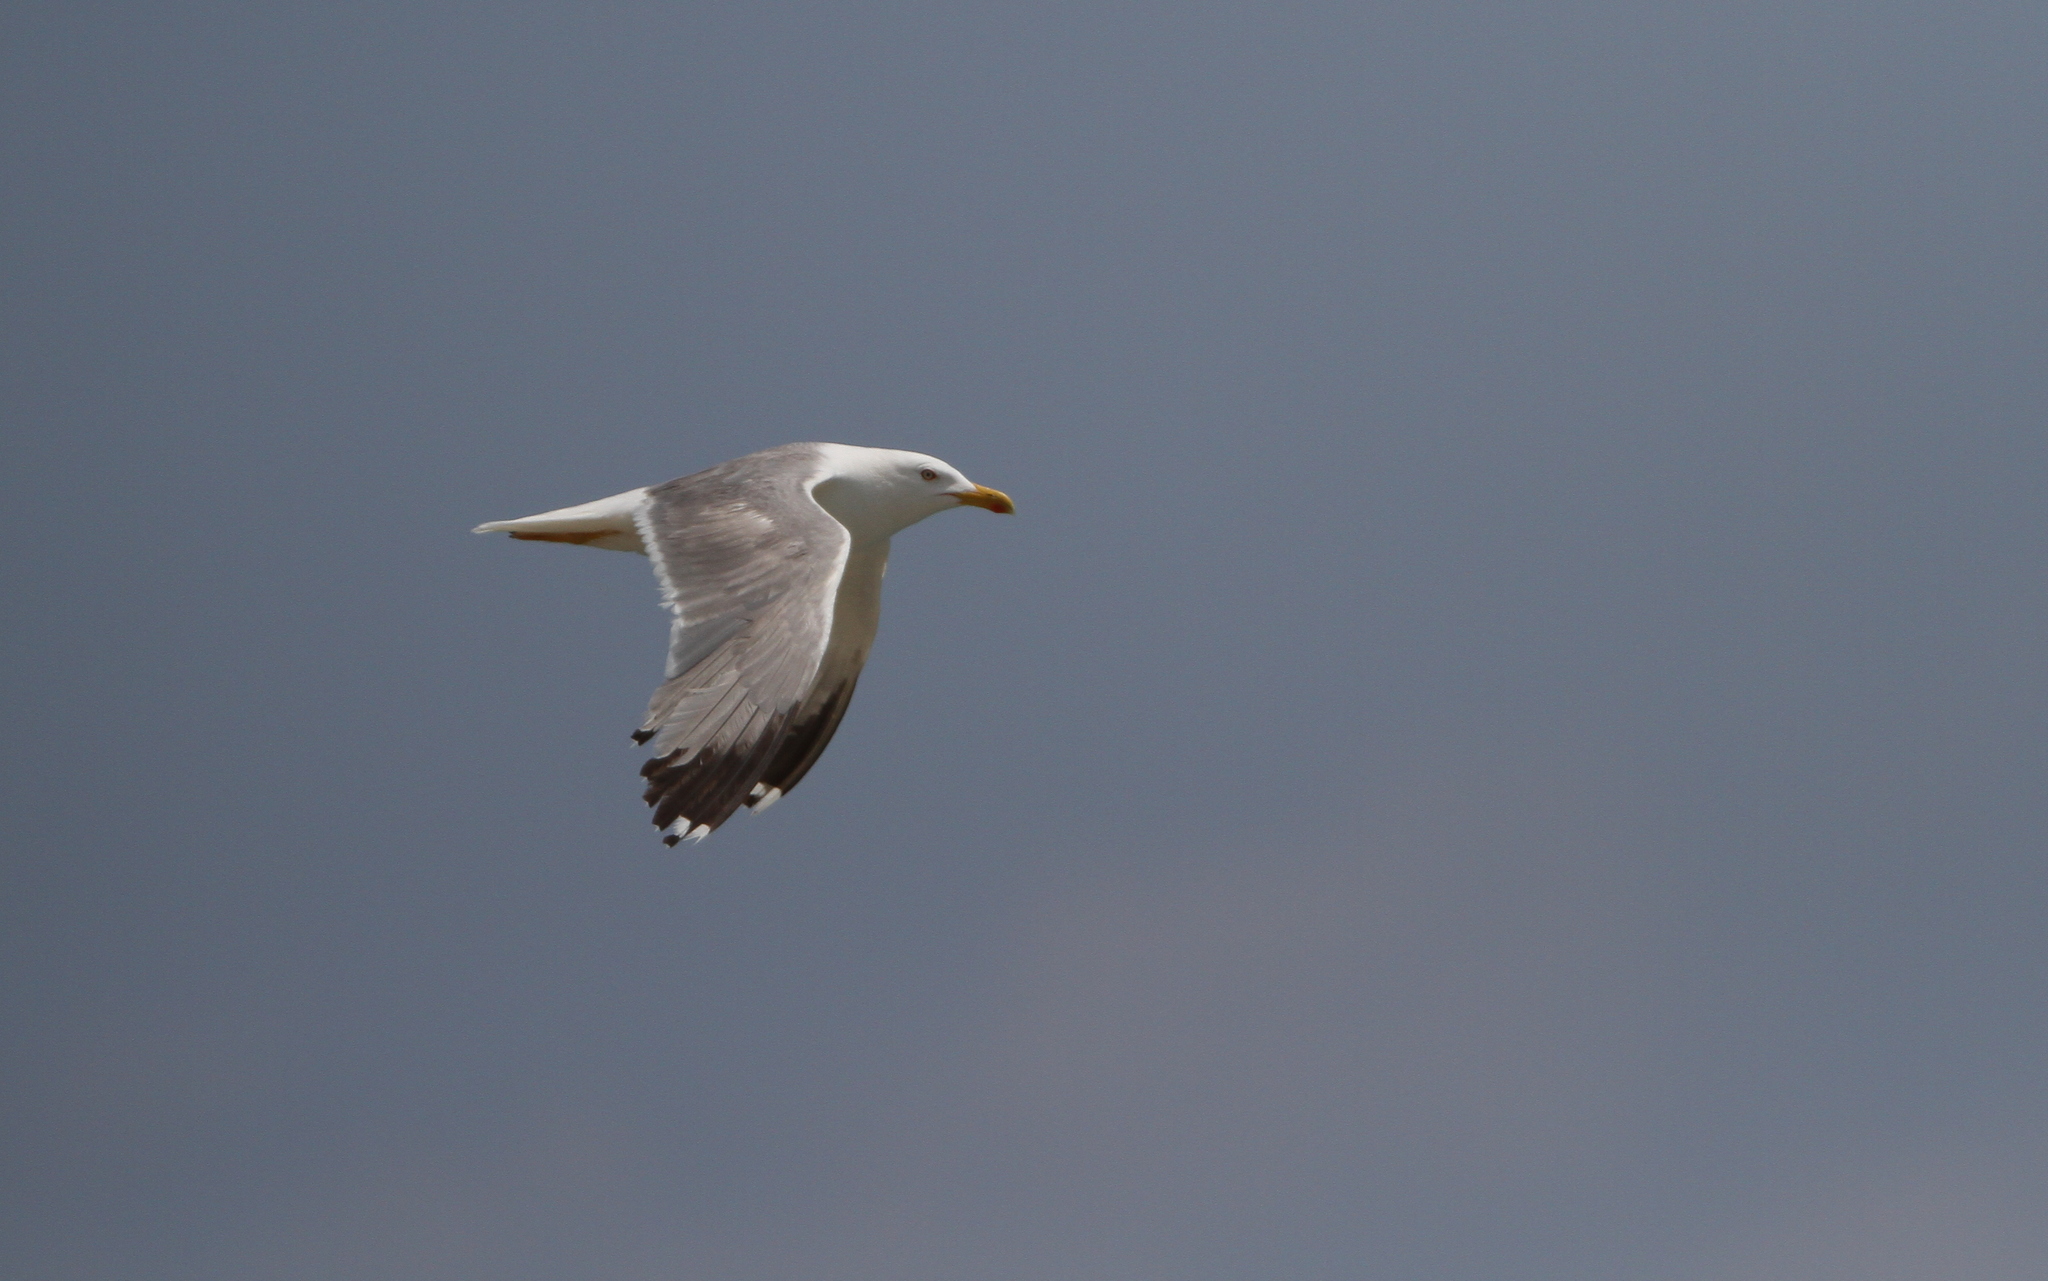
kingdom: Animalia
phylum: Chordata
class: Aves
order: Charadriiformes
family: Laridae
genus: Larus
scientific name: Larus michahellis
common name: Yellow-legged gull
